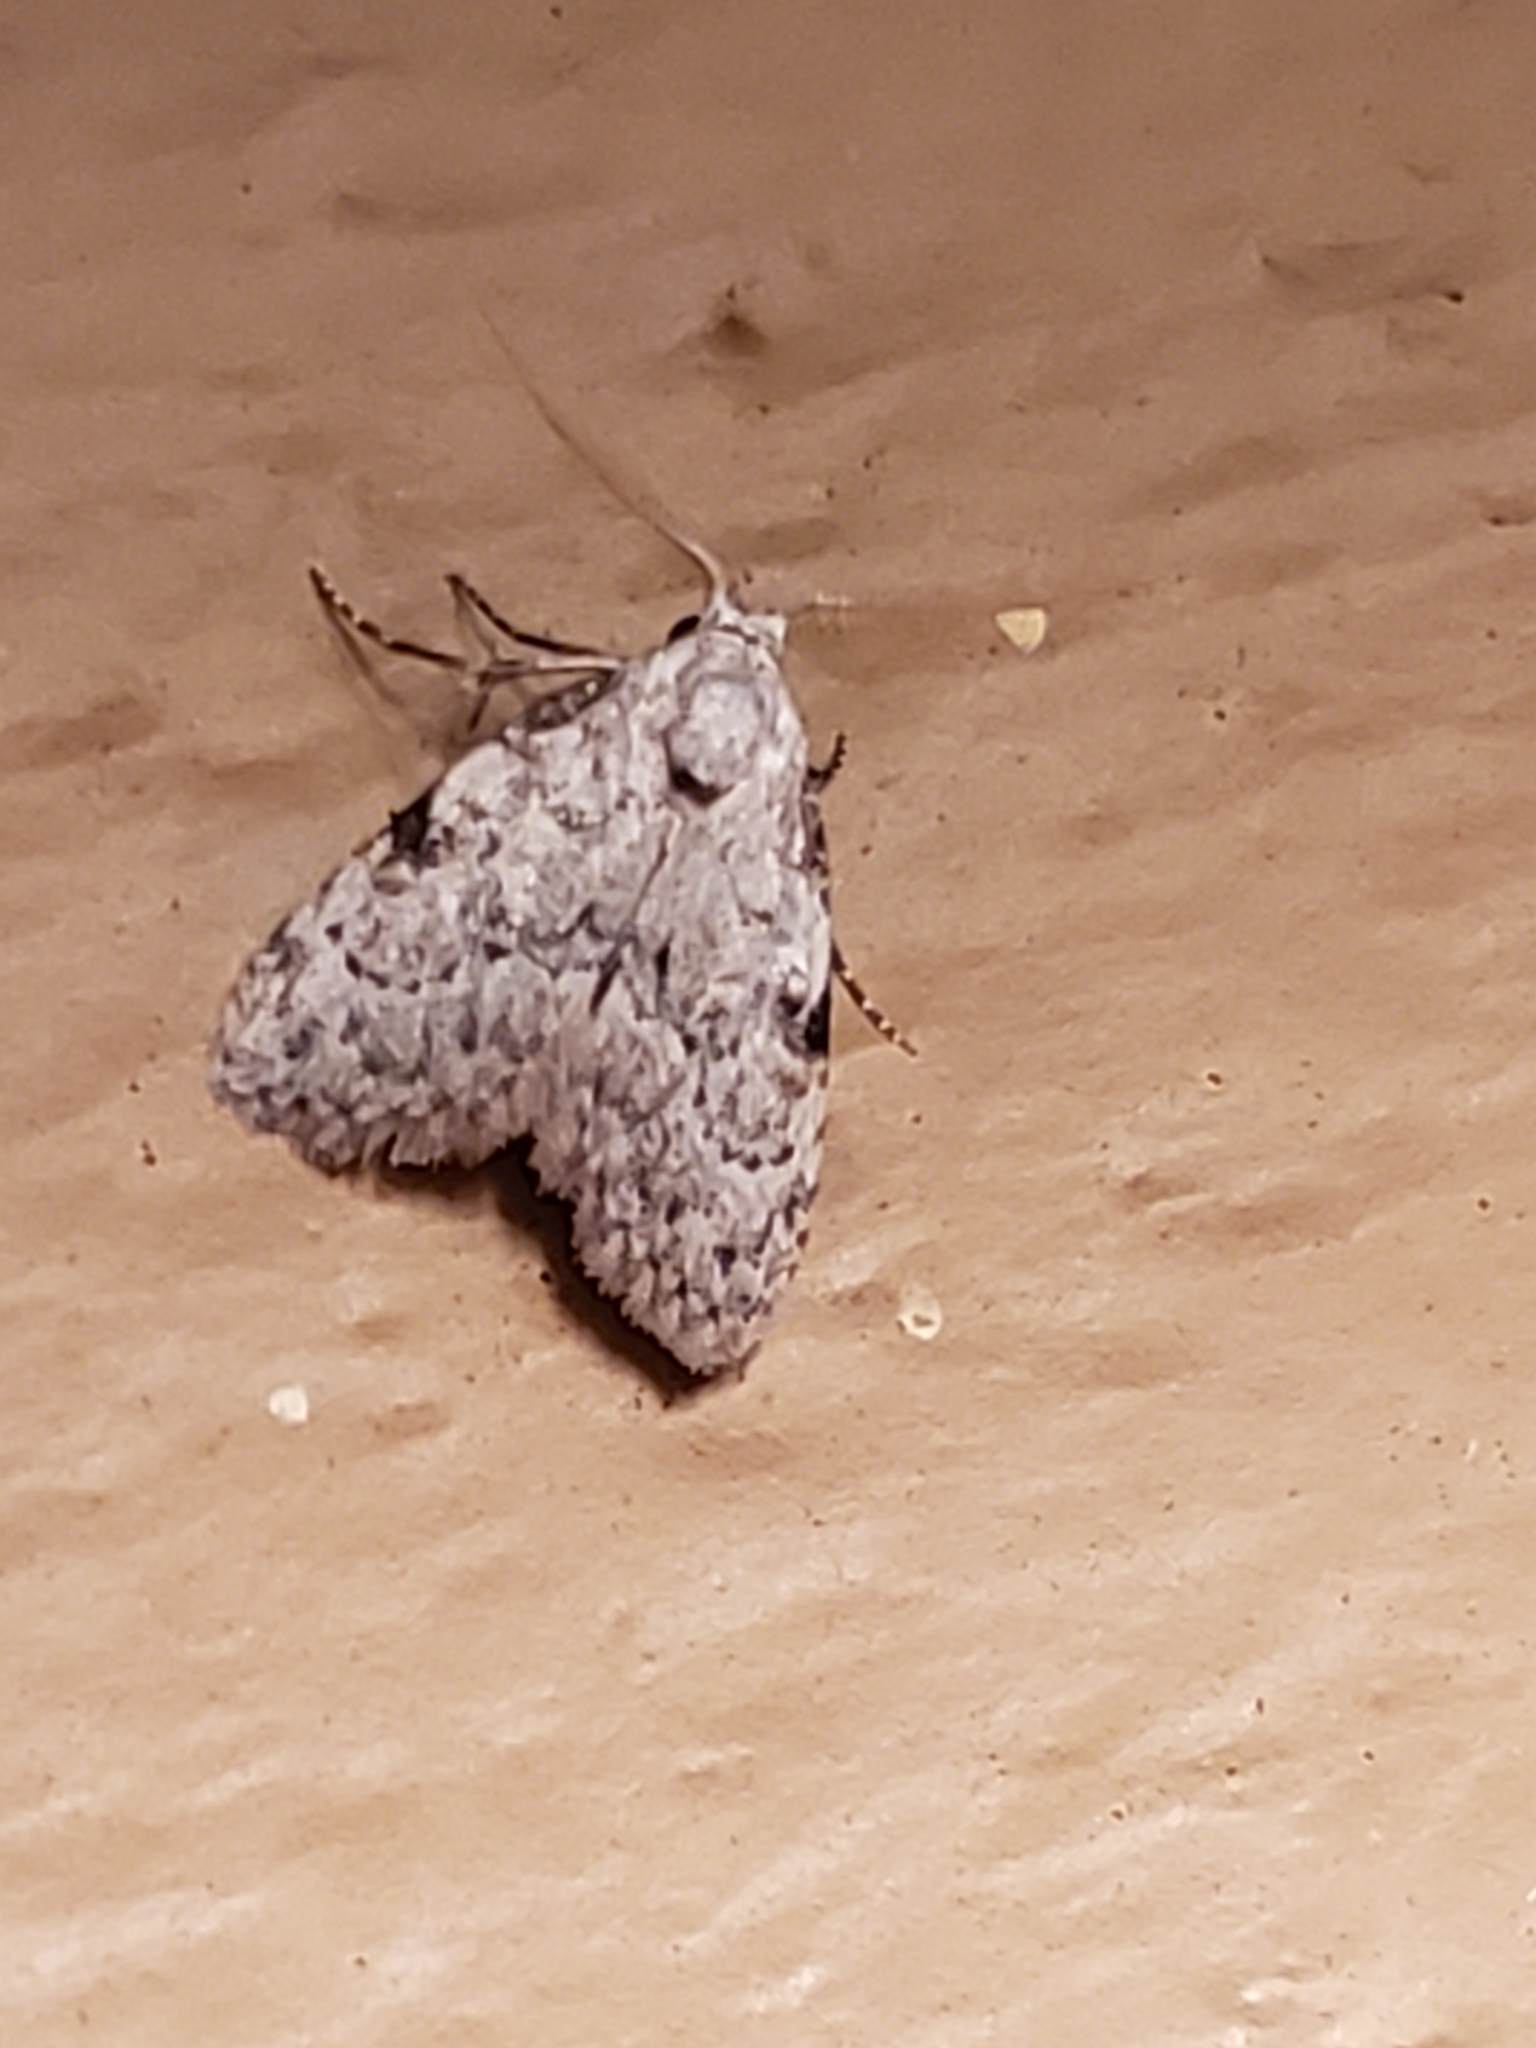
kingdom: Animalia
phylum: Arthropoda
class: Insecta
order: Lepidoptera
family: Nolidae
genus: Meganola
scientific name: Meganola minuscula
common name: Confused meganola moth
